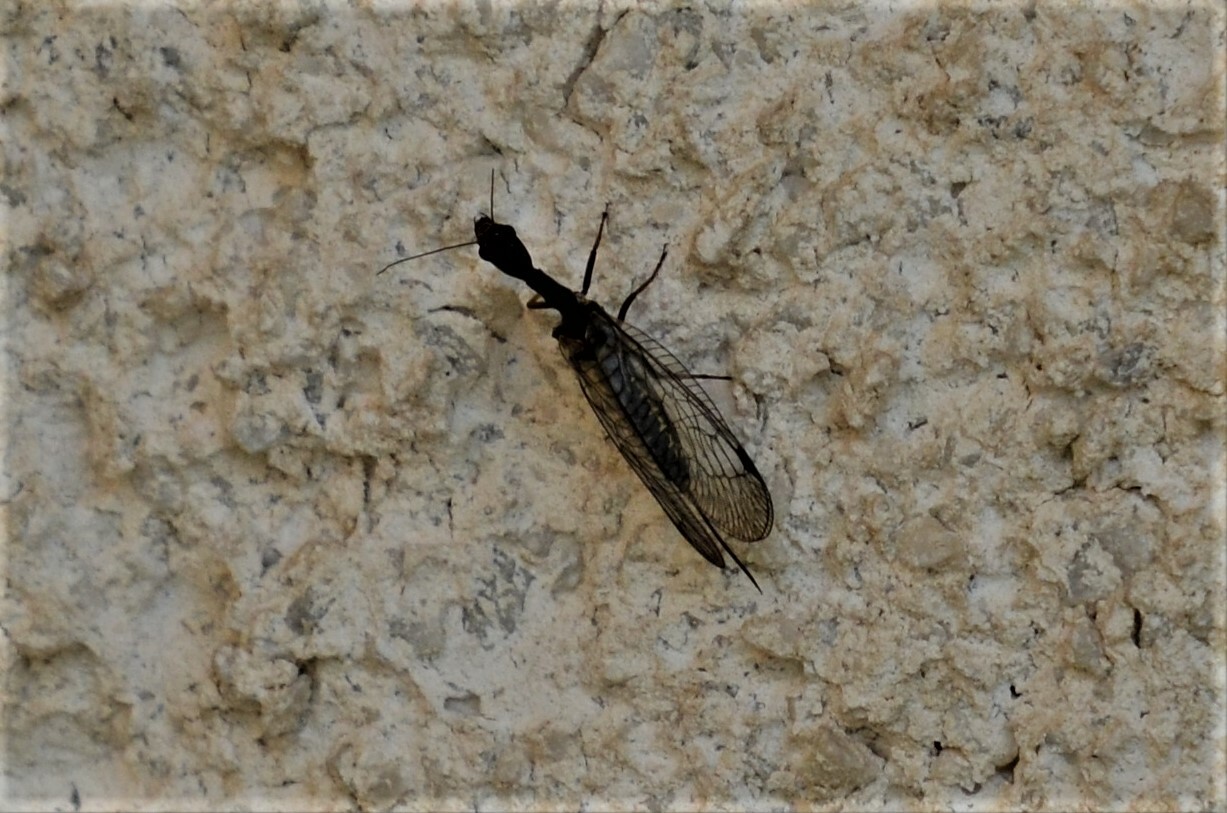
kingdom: Animalia
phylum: Arthropoda
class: Insecta
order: Raphidioptera
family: Raphidiidae
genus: Phaeostigma
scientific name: Phaeostigma notatum
